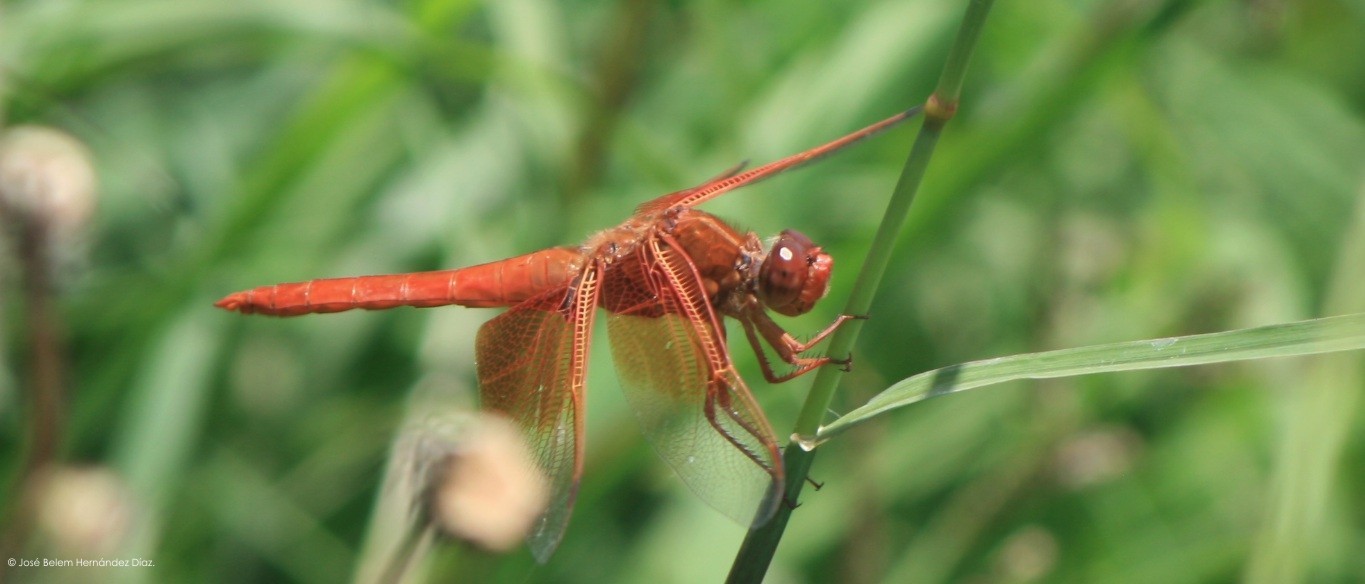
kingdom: Animalia
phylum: Arthropoda
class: Insecta
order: Odonata
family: Libellulidae
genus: Libellula
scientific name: Libellula saturata
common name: Flame skimmer
